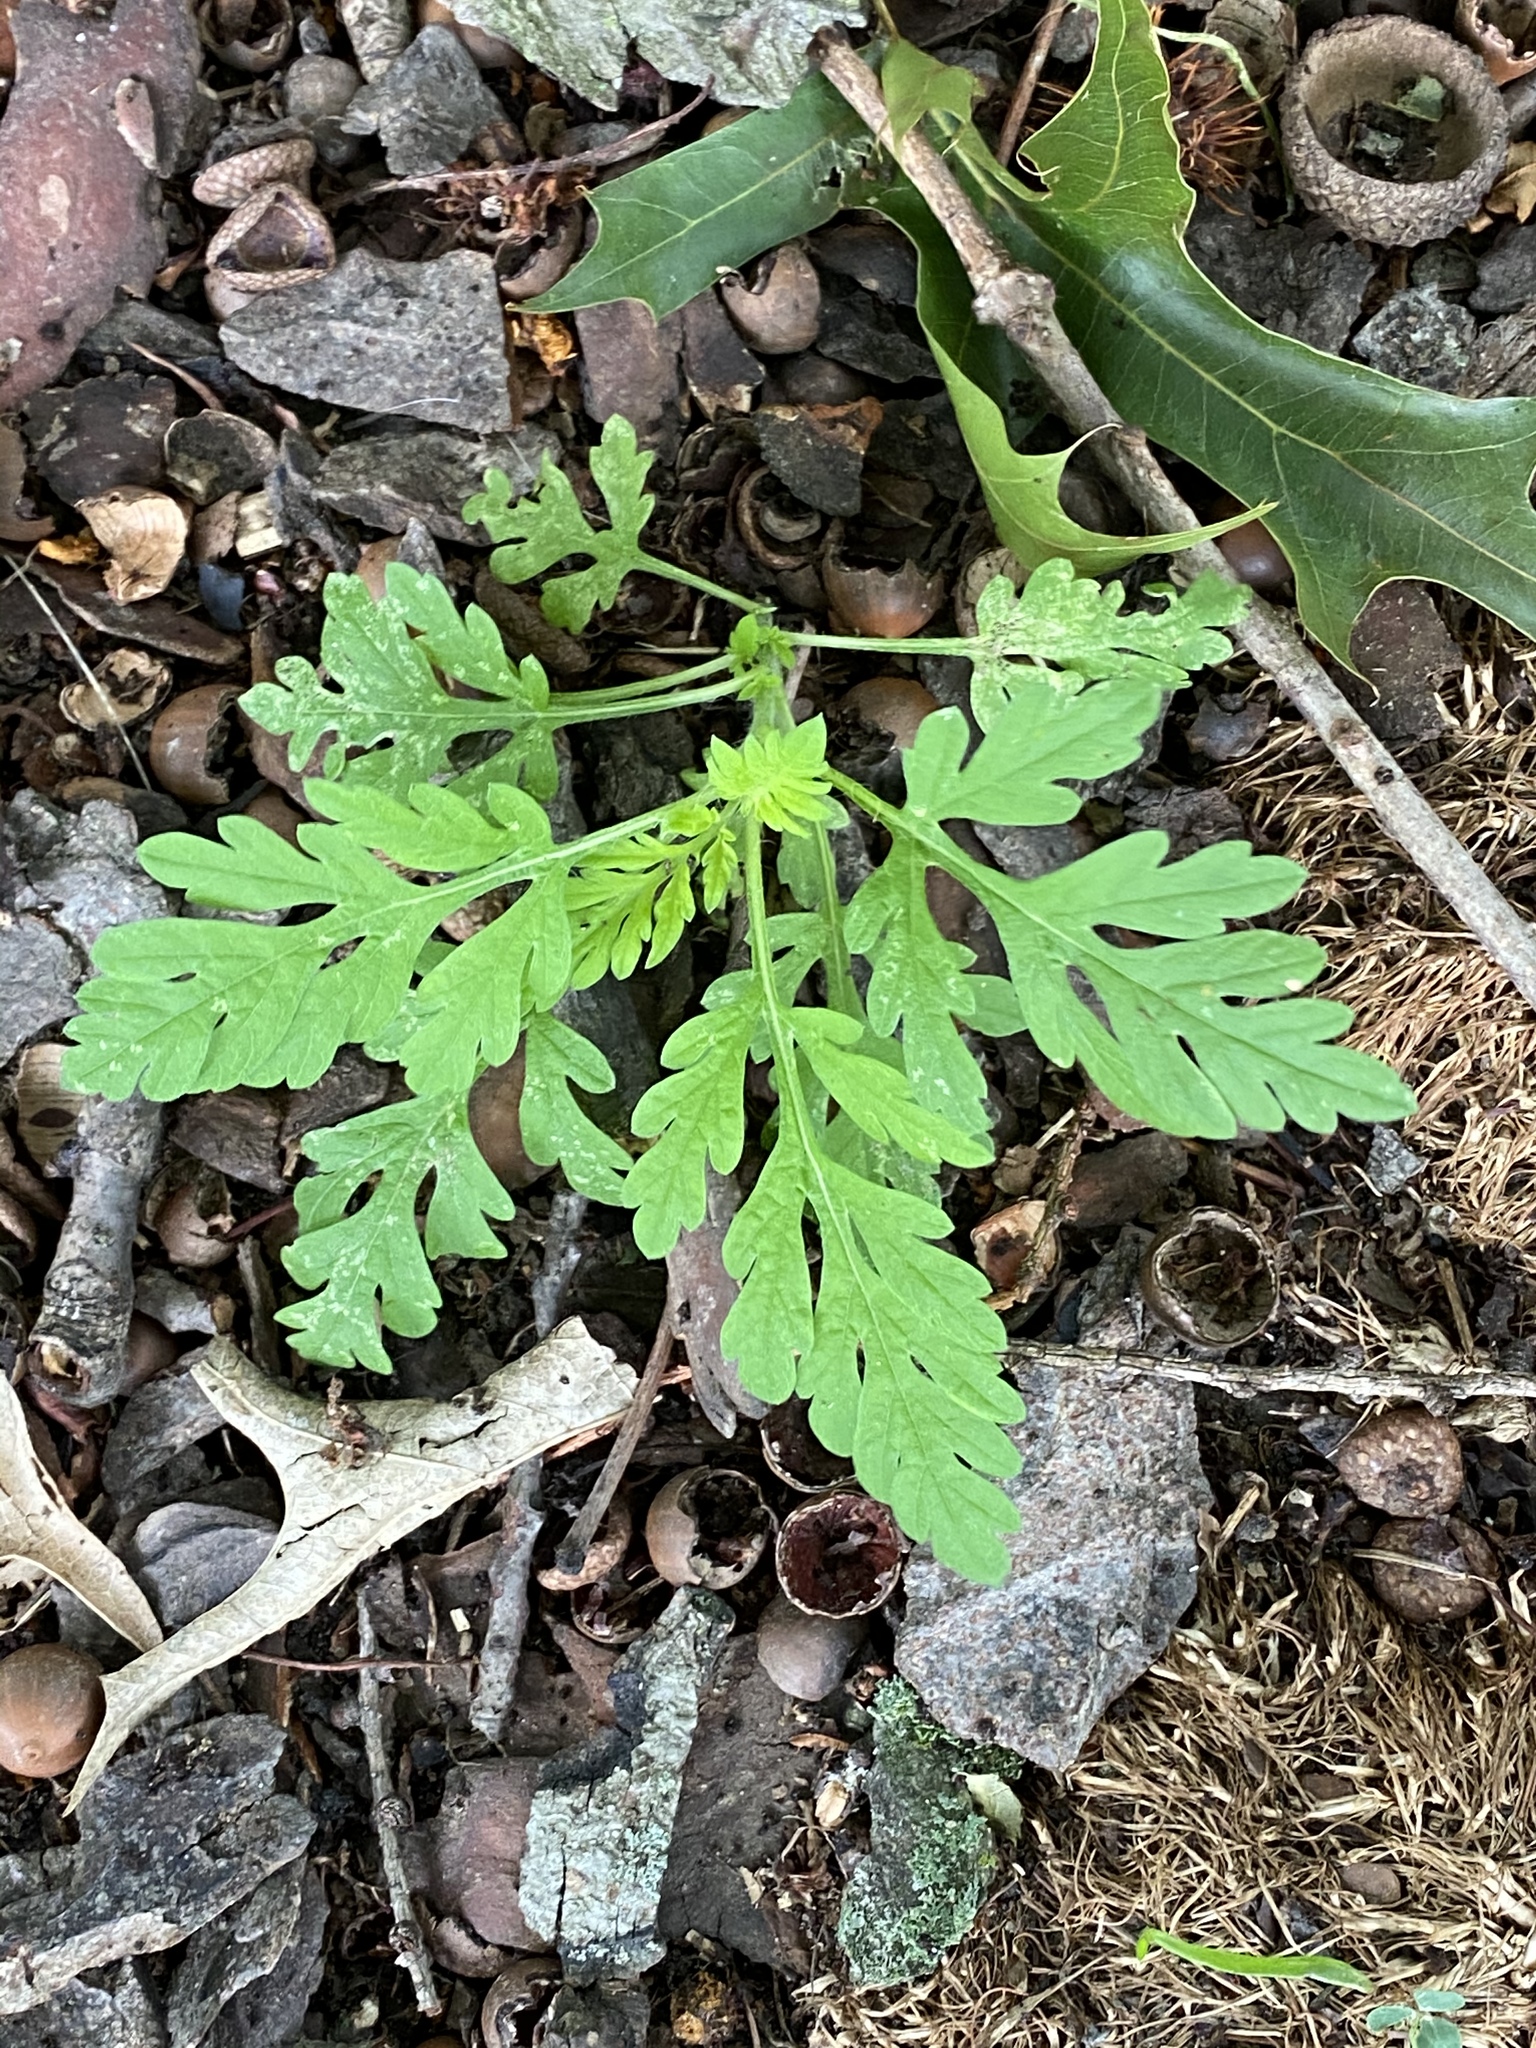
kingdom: Plantae
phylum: Tracheophyta
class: Magnoliopsida
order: Asterales
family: Asteraceae
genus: Ambrosia
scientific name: Ambrosia artemisiifolia
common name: Annual ragweed
